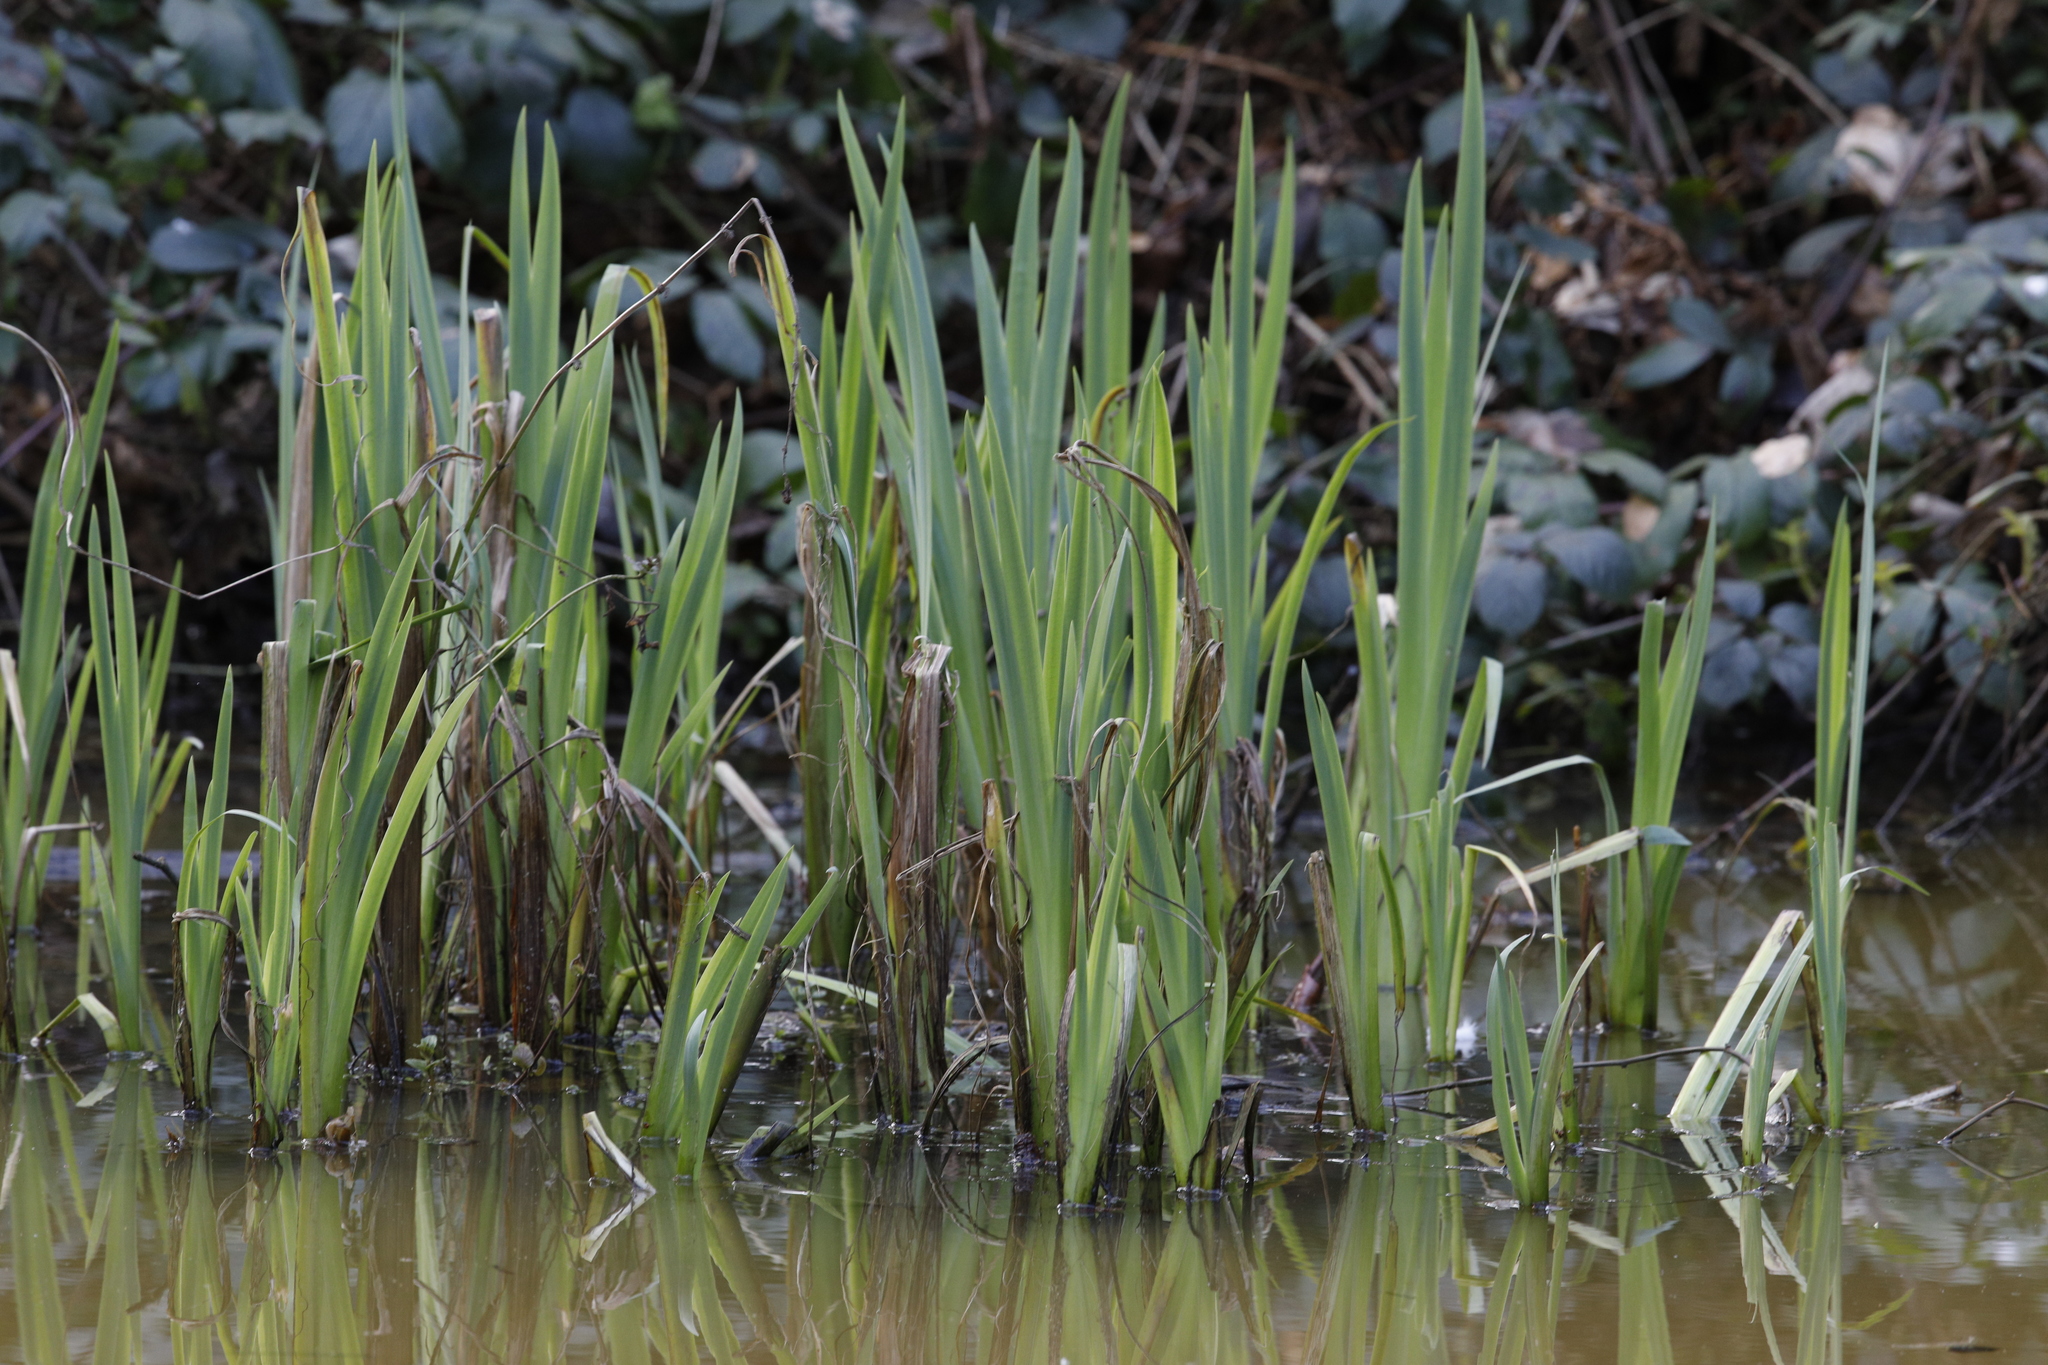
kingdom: Plantae
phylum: Tracheophyta
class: Liliopsida
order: Asparagales
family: Iridaceae
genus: Iris
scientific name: Iris pseudacorus
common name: Yellow flag
